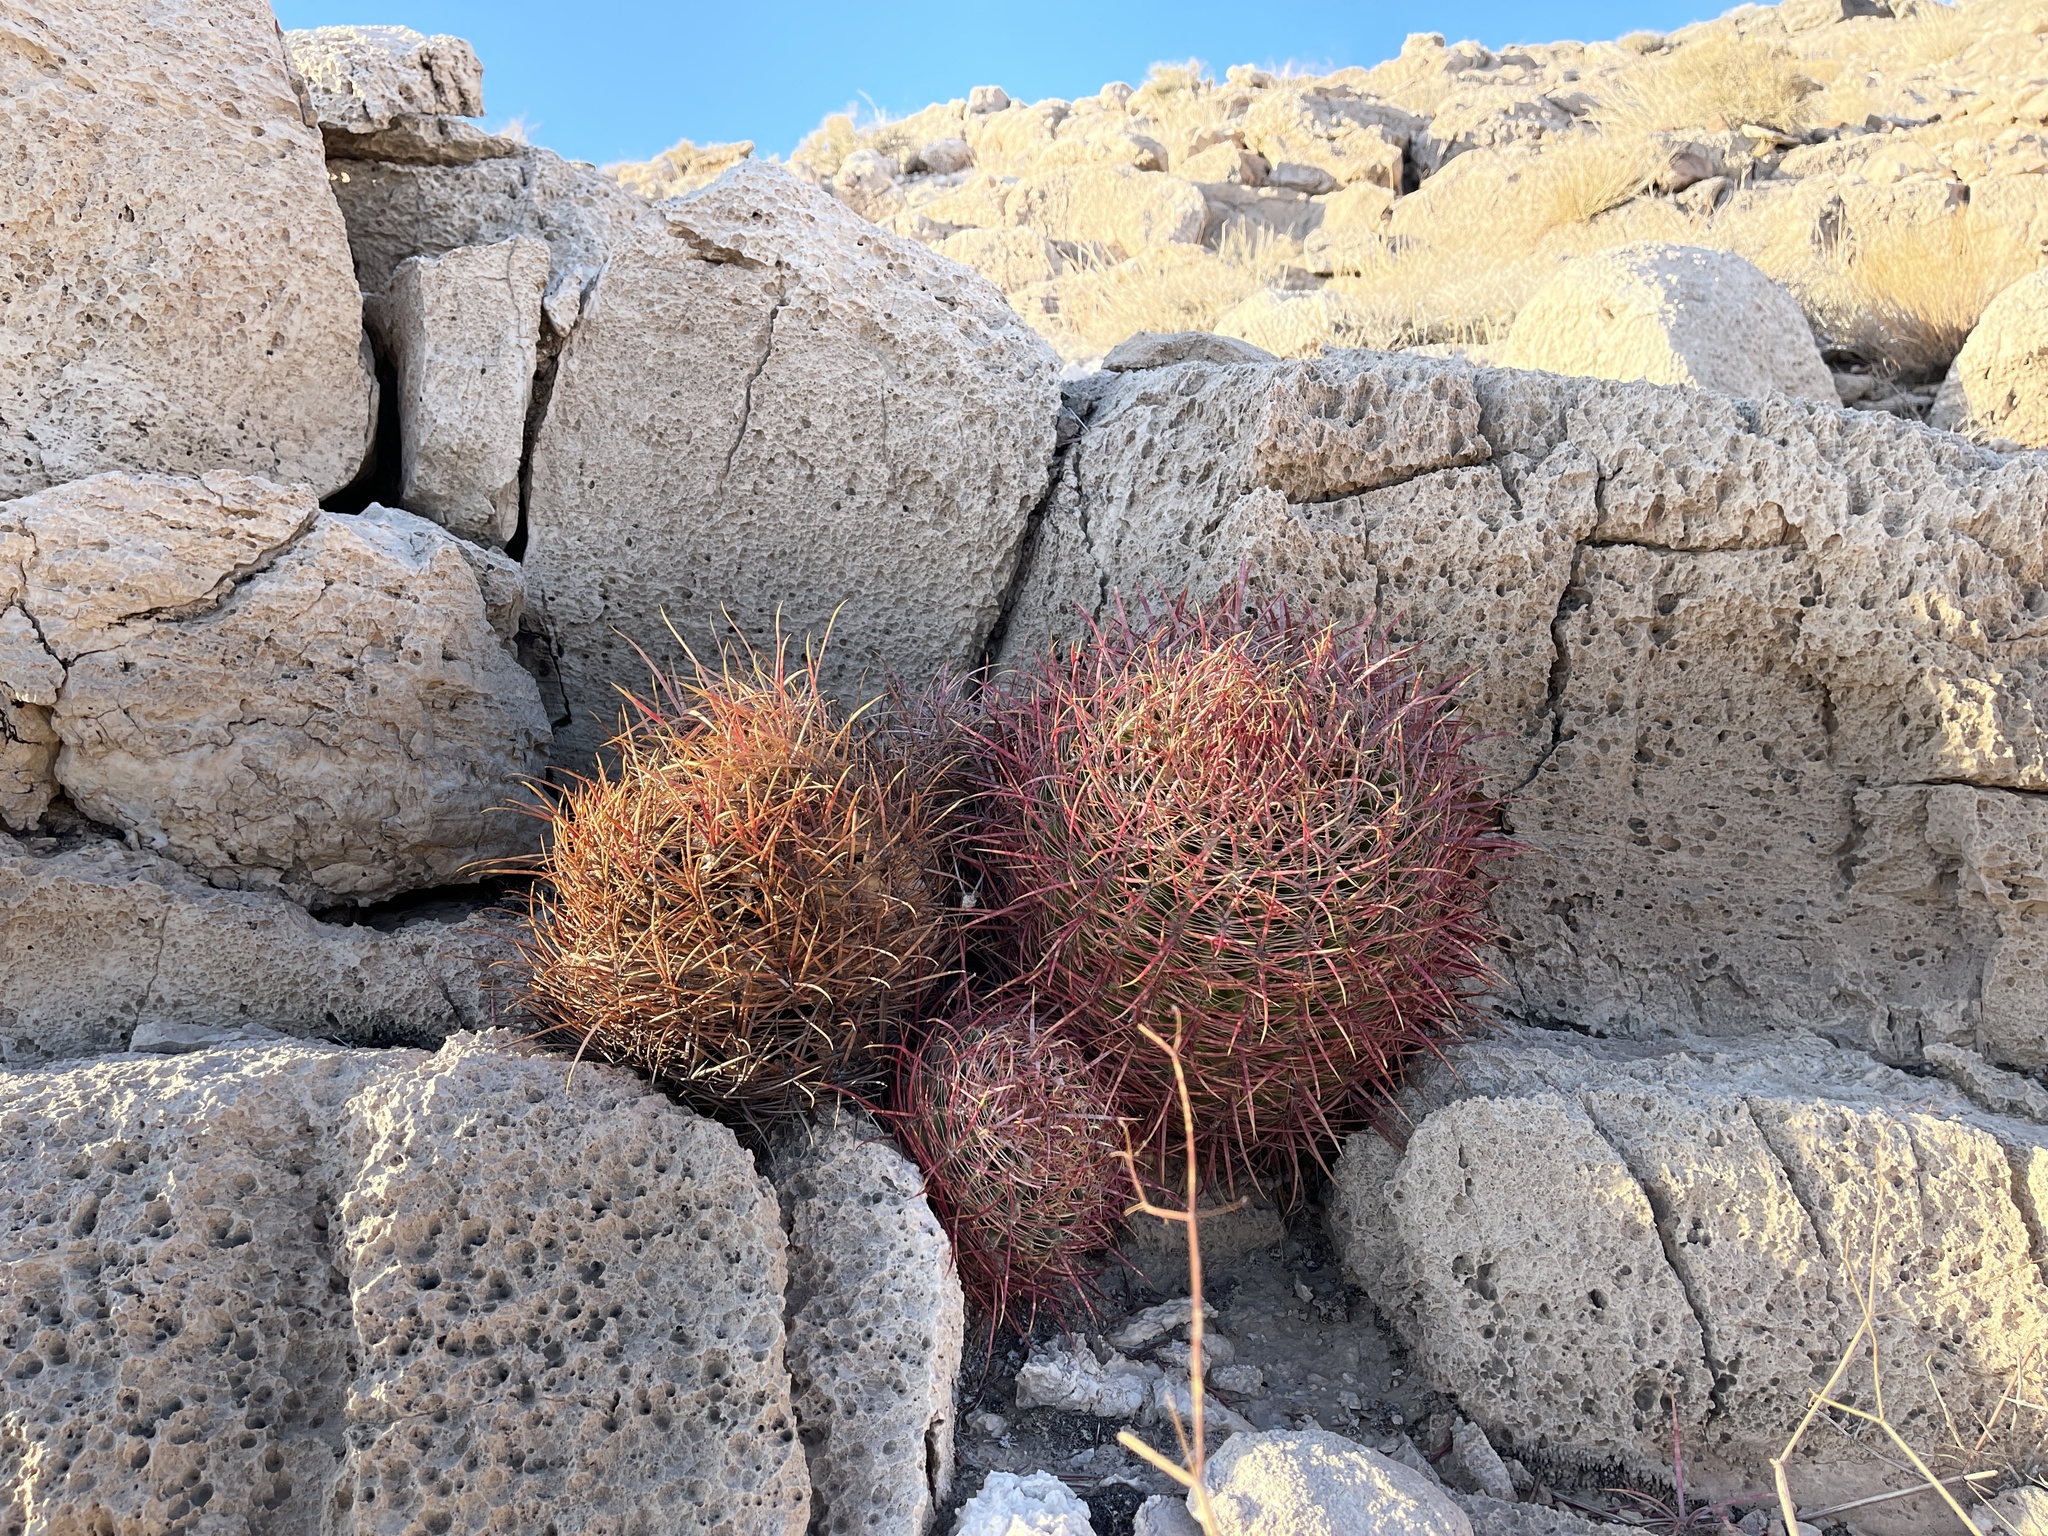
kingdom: Plantae
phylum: Tracheophyta
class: Magnoliopsida
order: Caryophyllales
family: Cactaceae
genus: Ferocactus
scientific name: Ferocactus cylindraceus
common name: California barrel cactus
